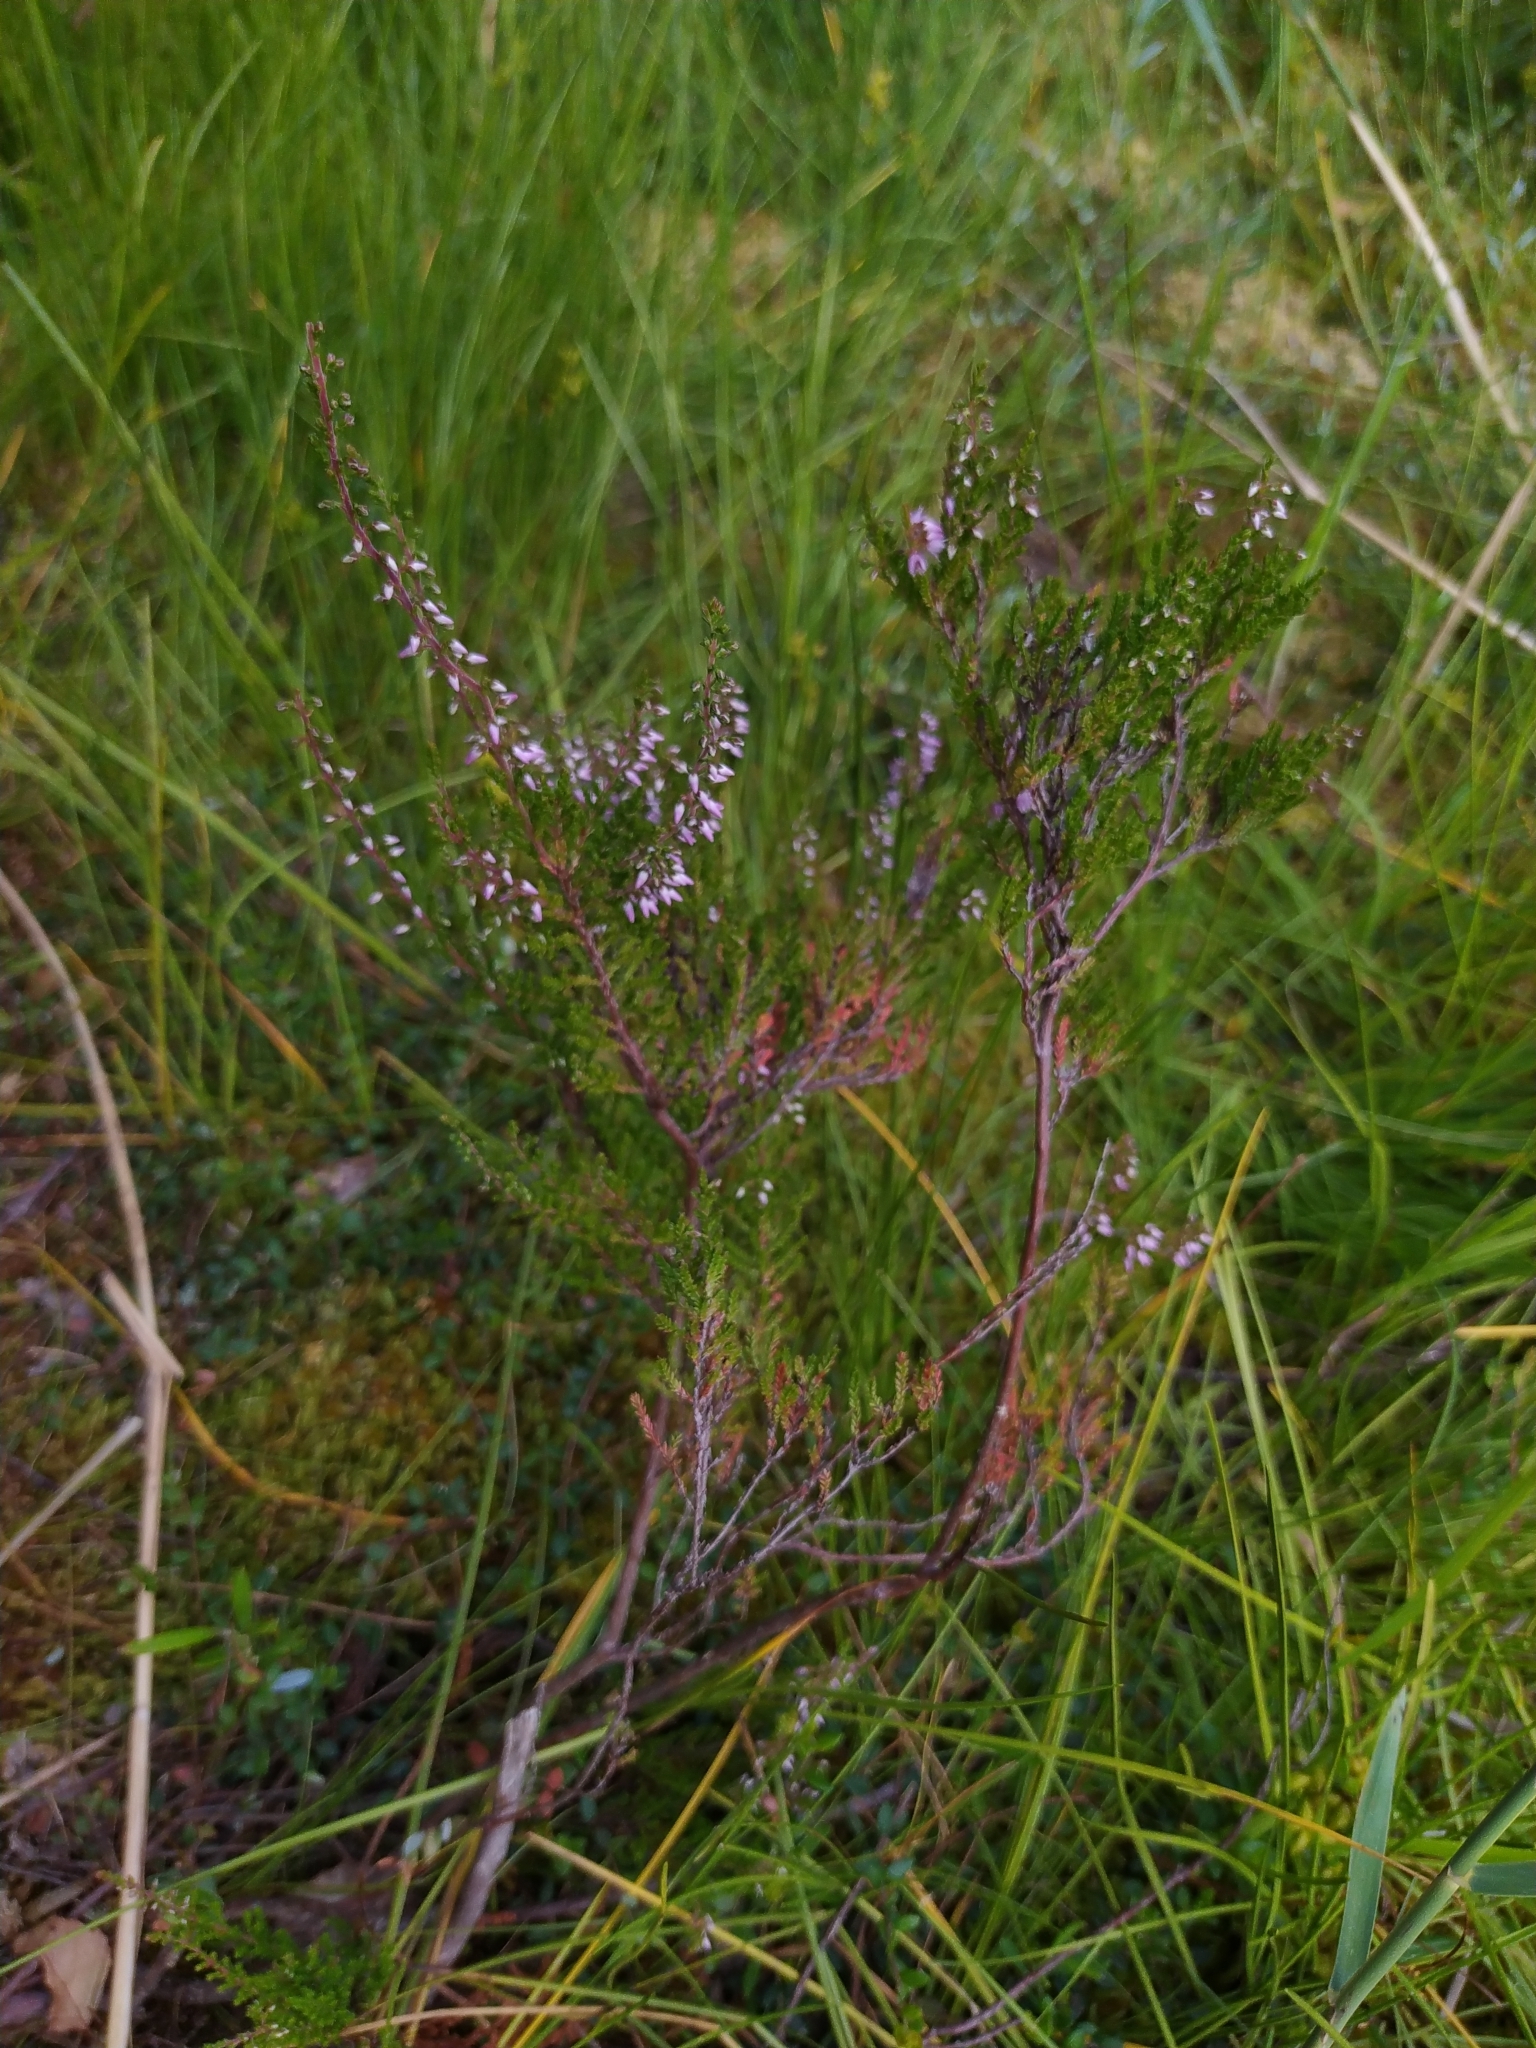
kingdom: Plantae
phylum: Tracheophyta
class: Magnoliopsida
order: Ericales
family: Ericaceae
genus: Calluna
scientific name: Calluna vulgaris
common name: Heather
